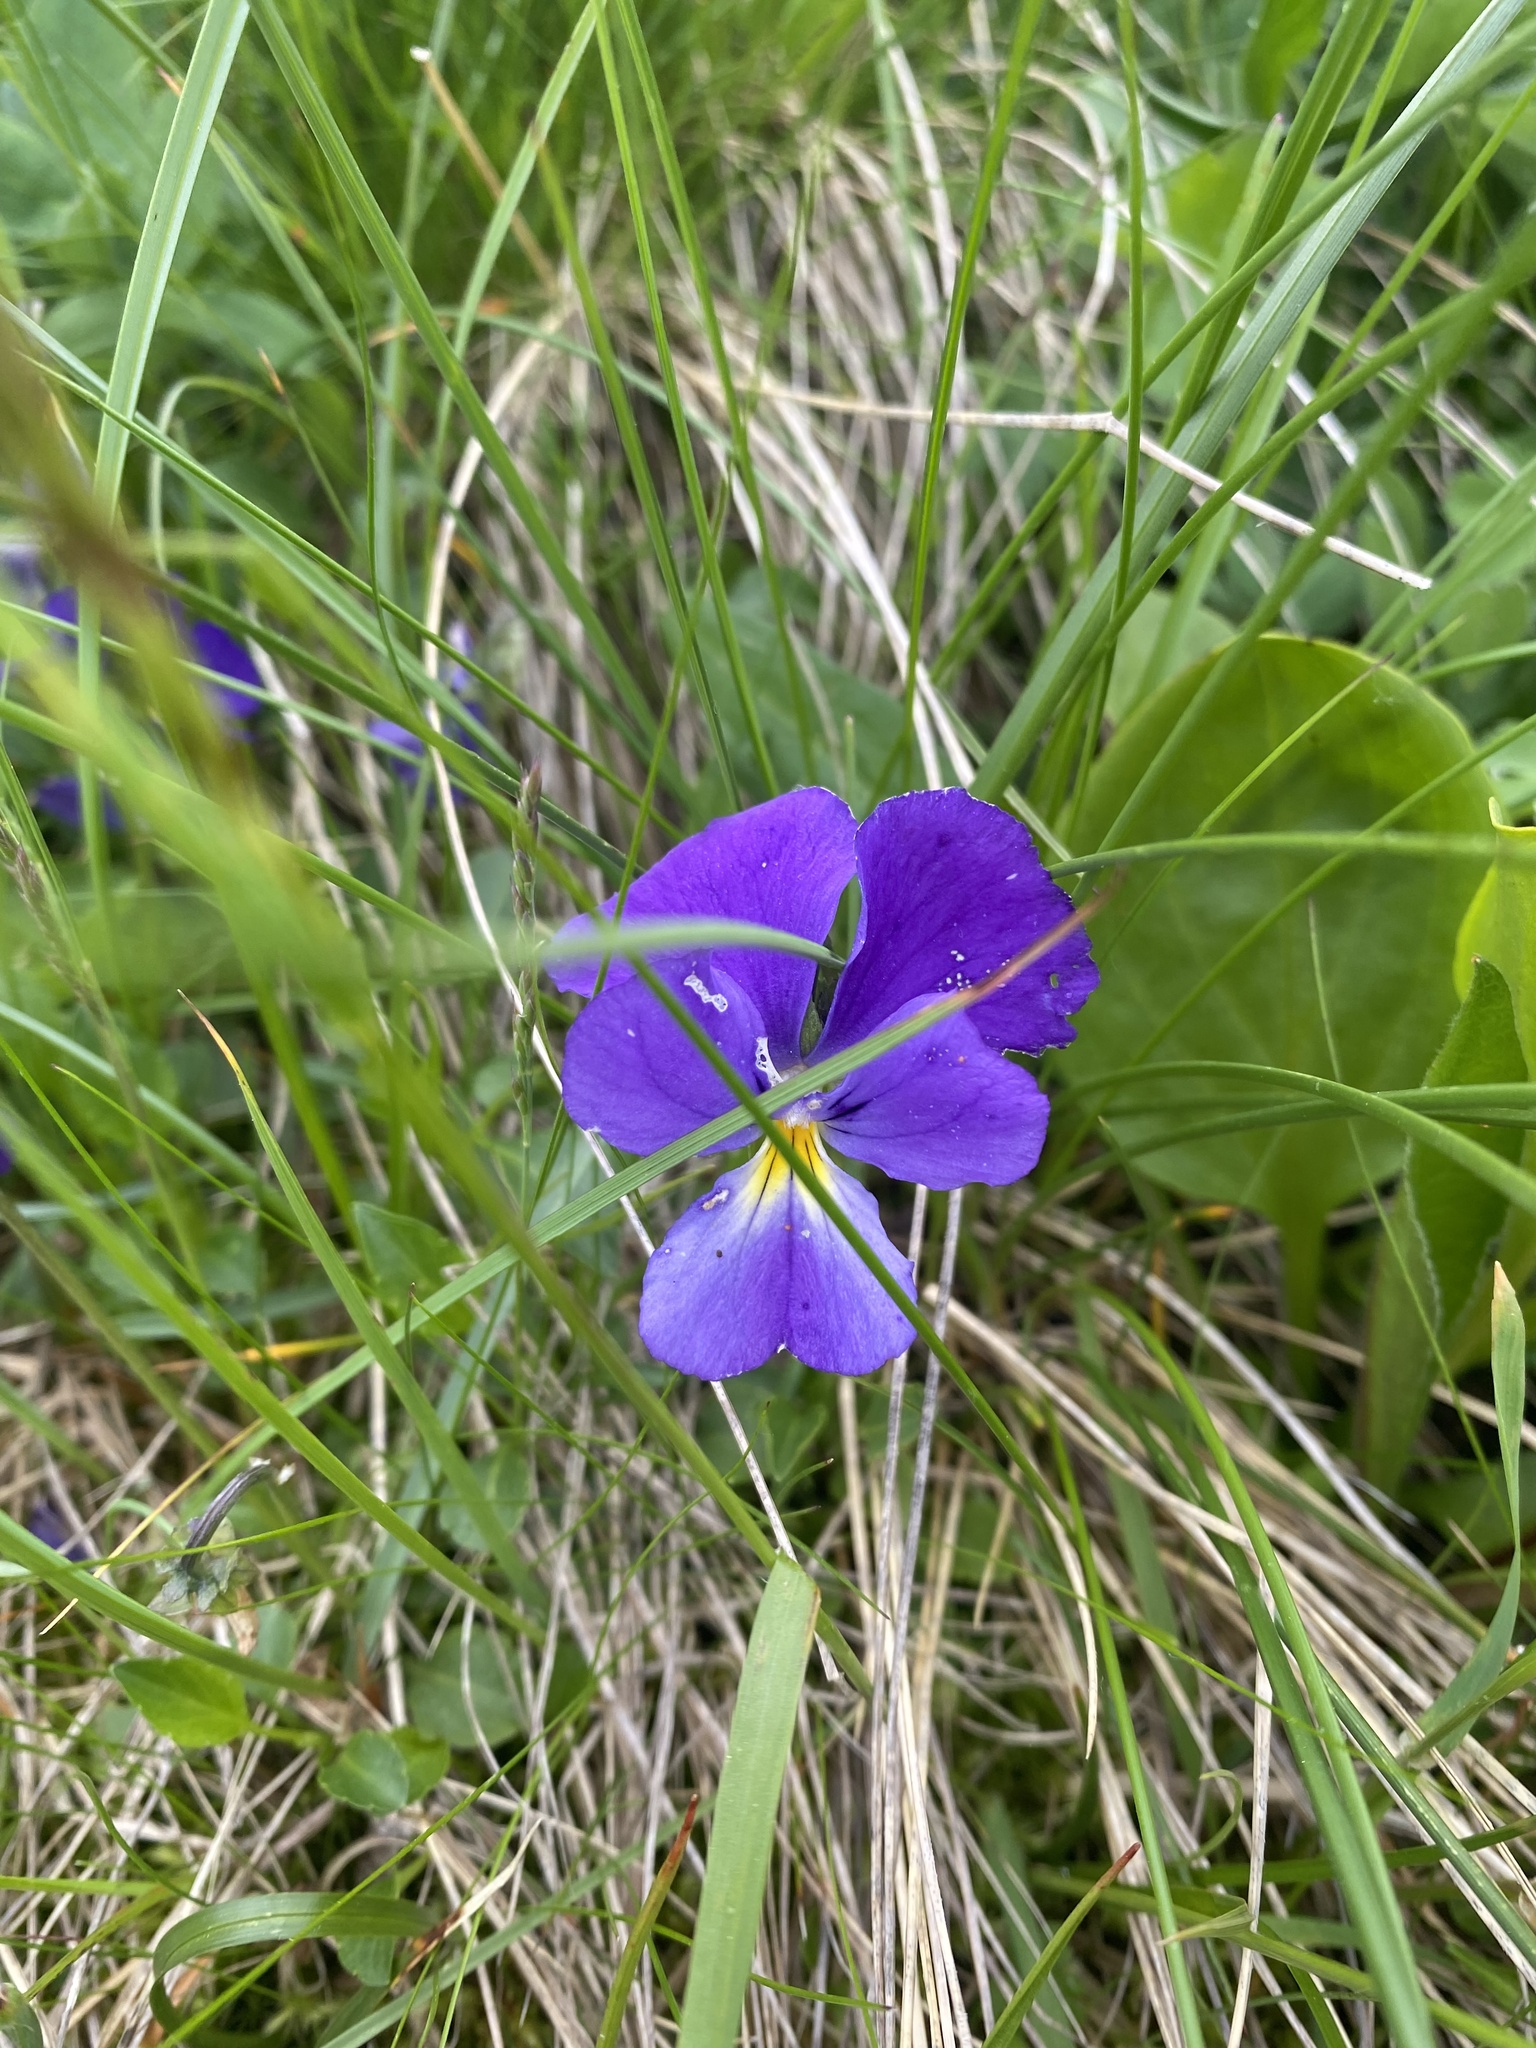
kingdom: Plantae
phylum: Tracheophyta
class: Magnoliopsida
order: Malpighiales
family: Violaceae
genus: Viola
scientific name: Viola oreades
